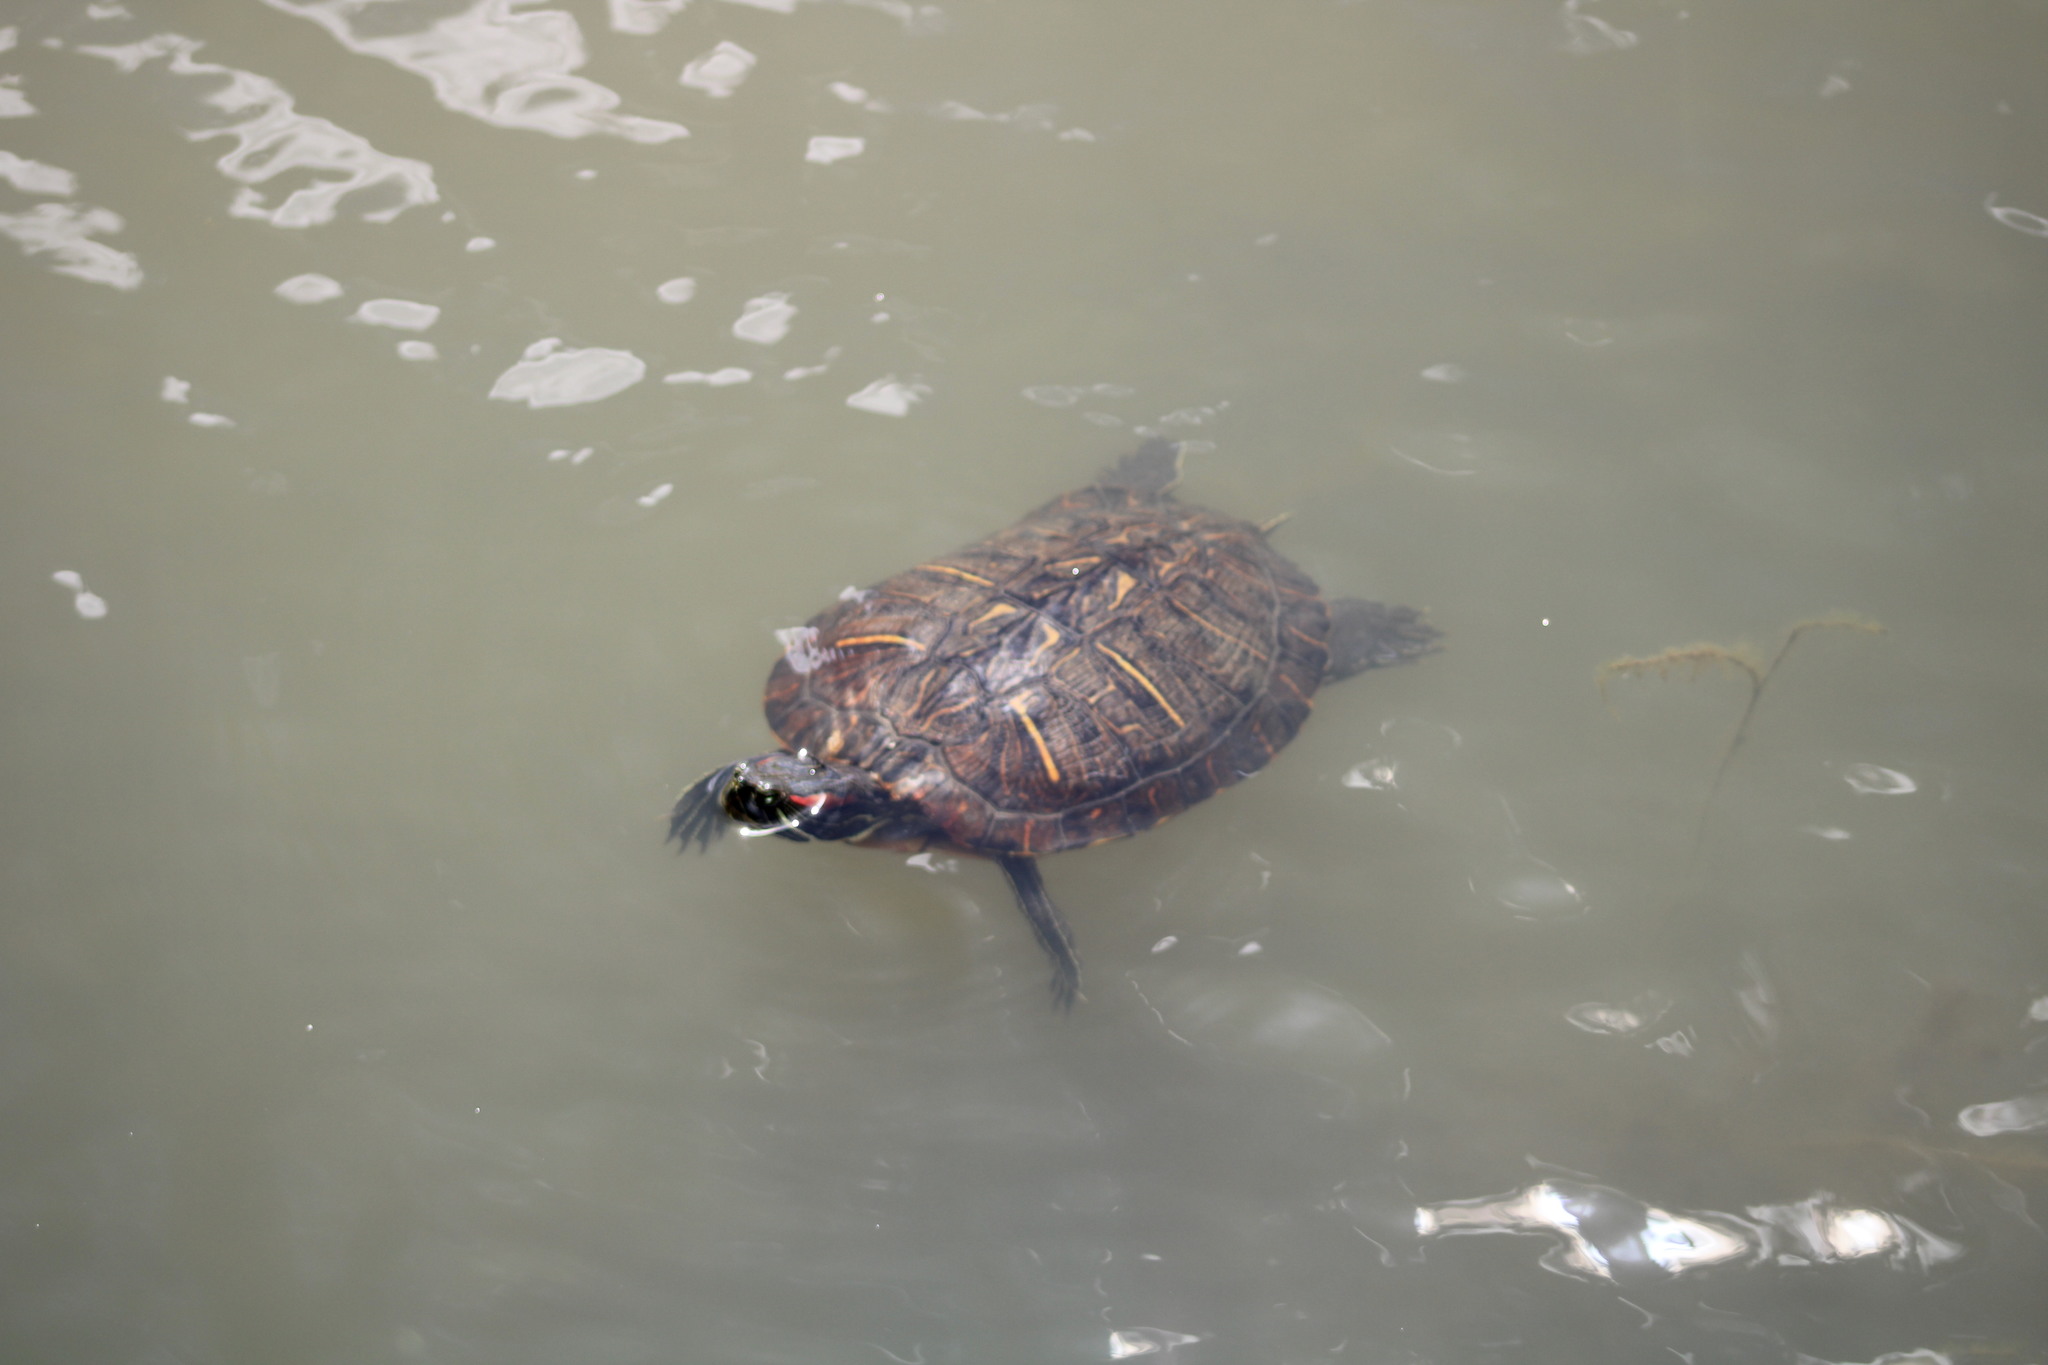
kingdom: Animalia
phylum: Chordata
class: Testudines
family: Emydidae
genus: Trachemys
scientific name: Trachemys scripta
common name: Slider
